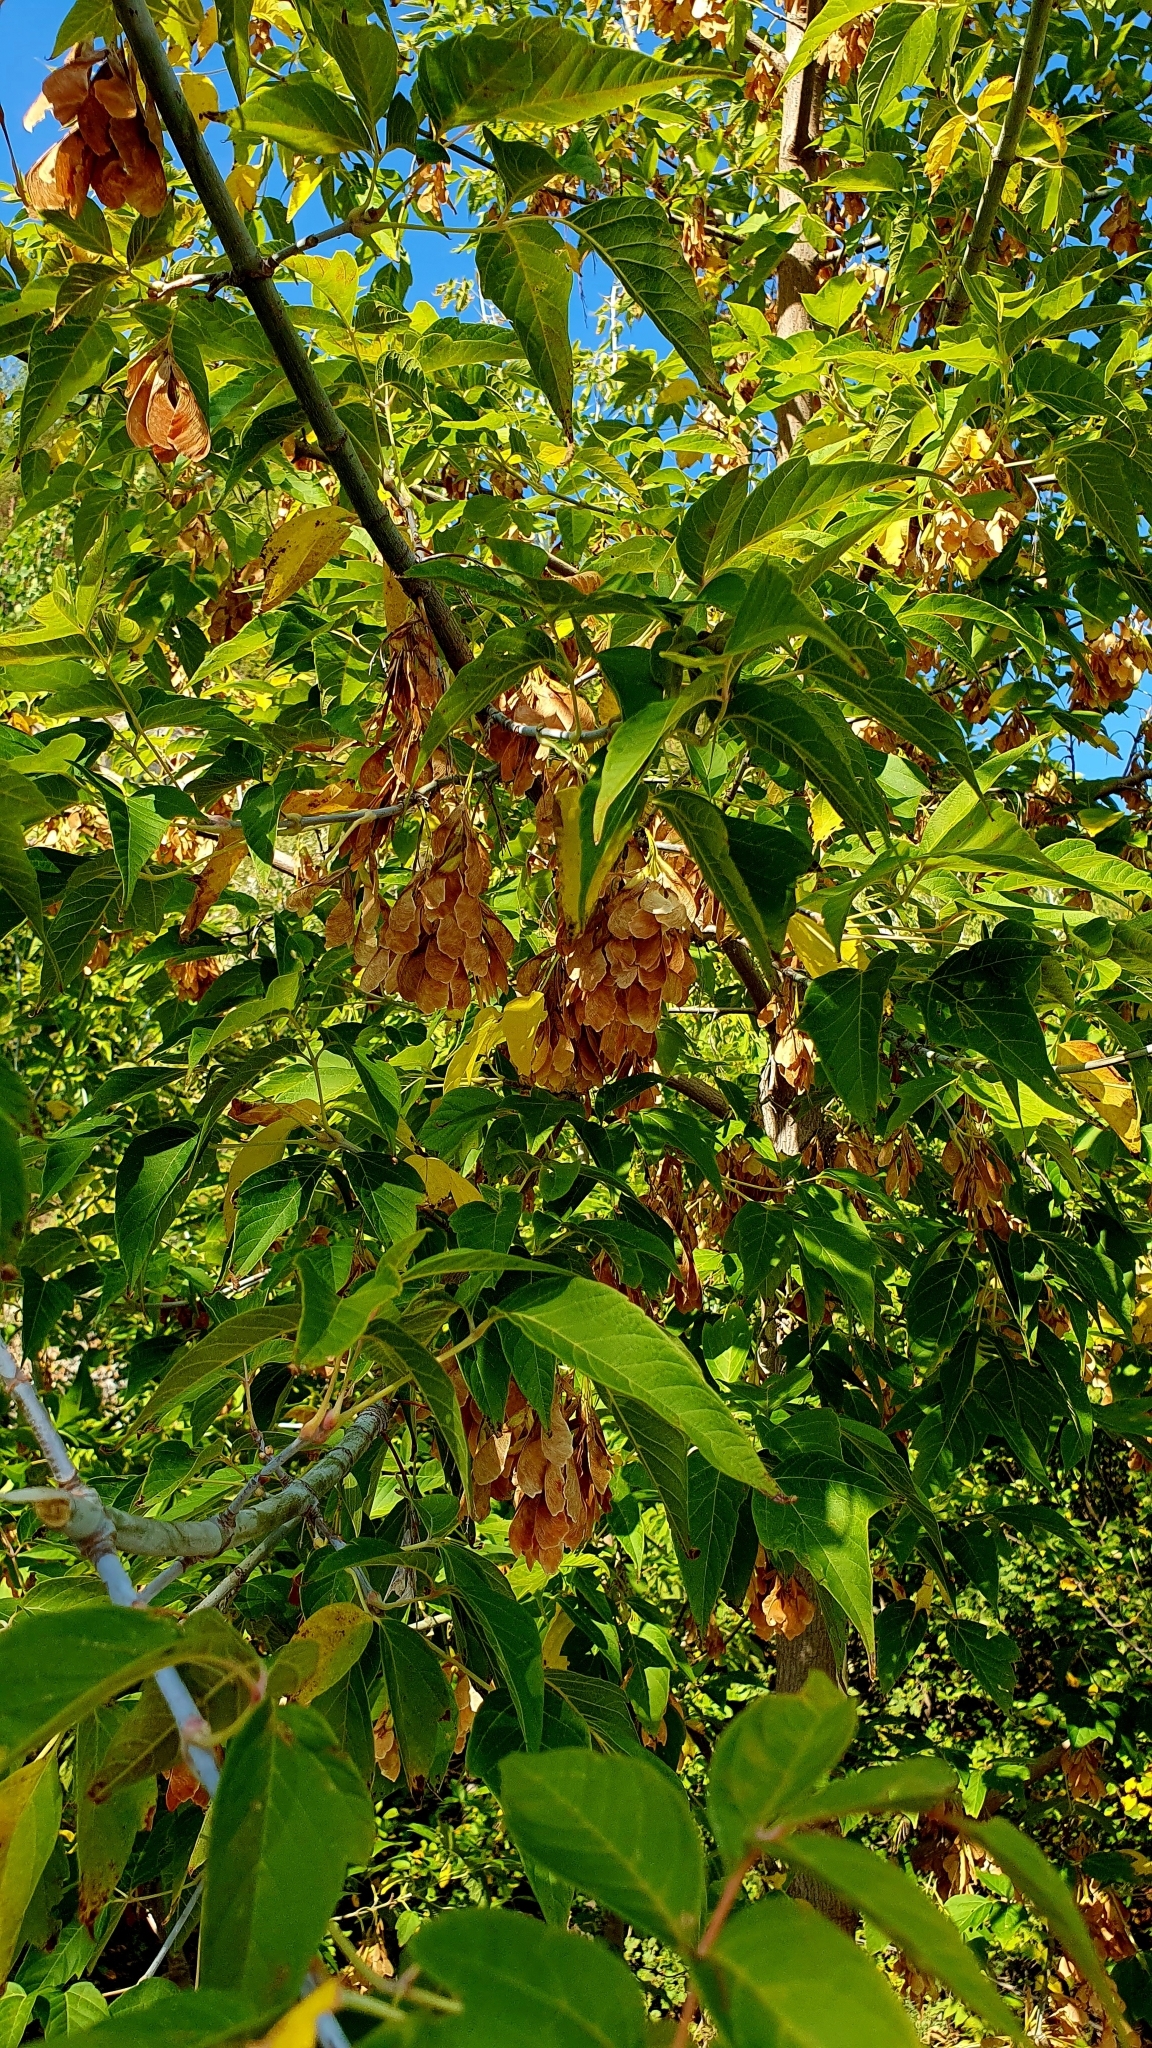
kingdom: Plantae
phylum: Tracheophyta
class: Magnoliopsida
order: Sapindales
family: Sapindaceae
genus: Acer
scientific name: Acer negundo
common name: Ashleaf maple
